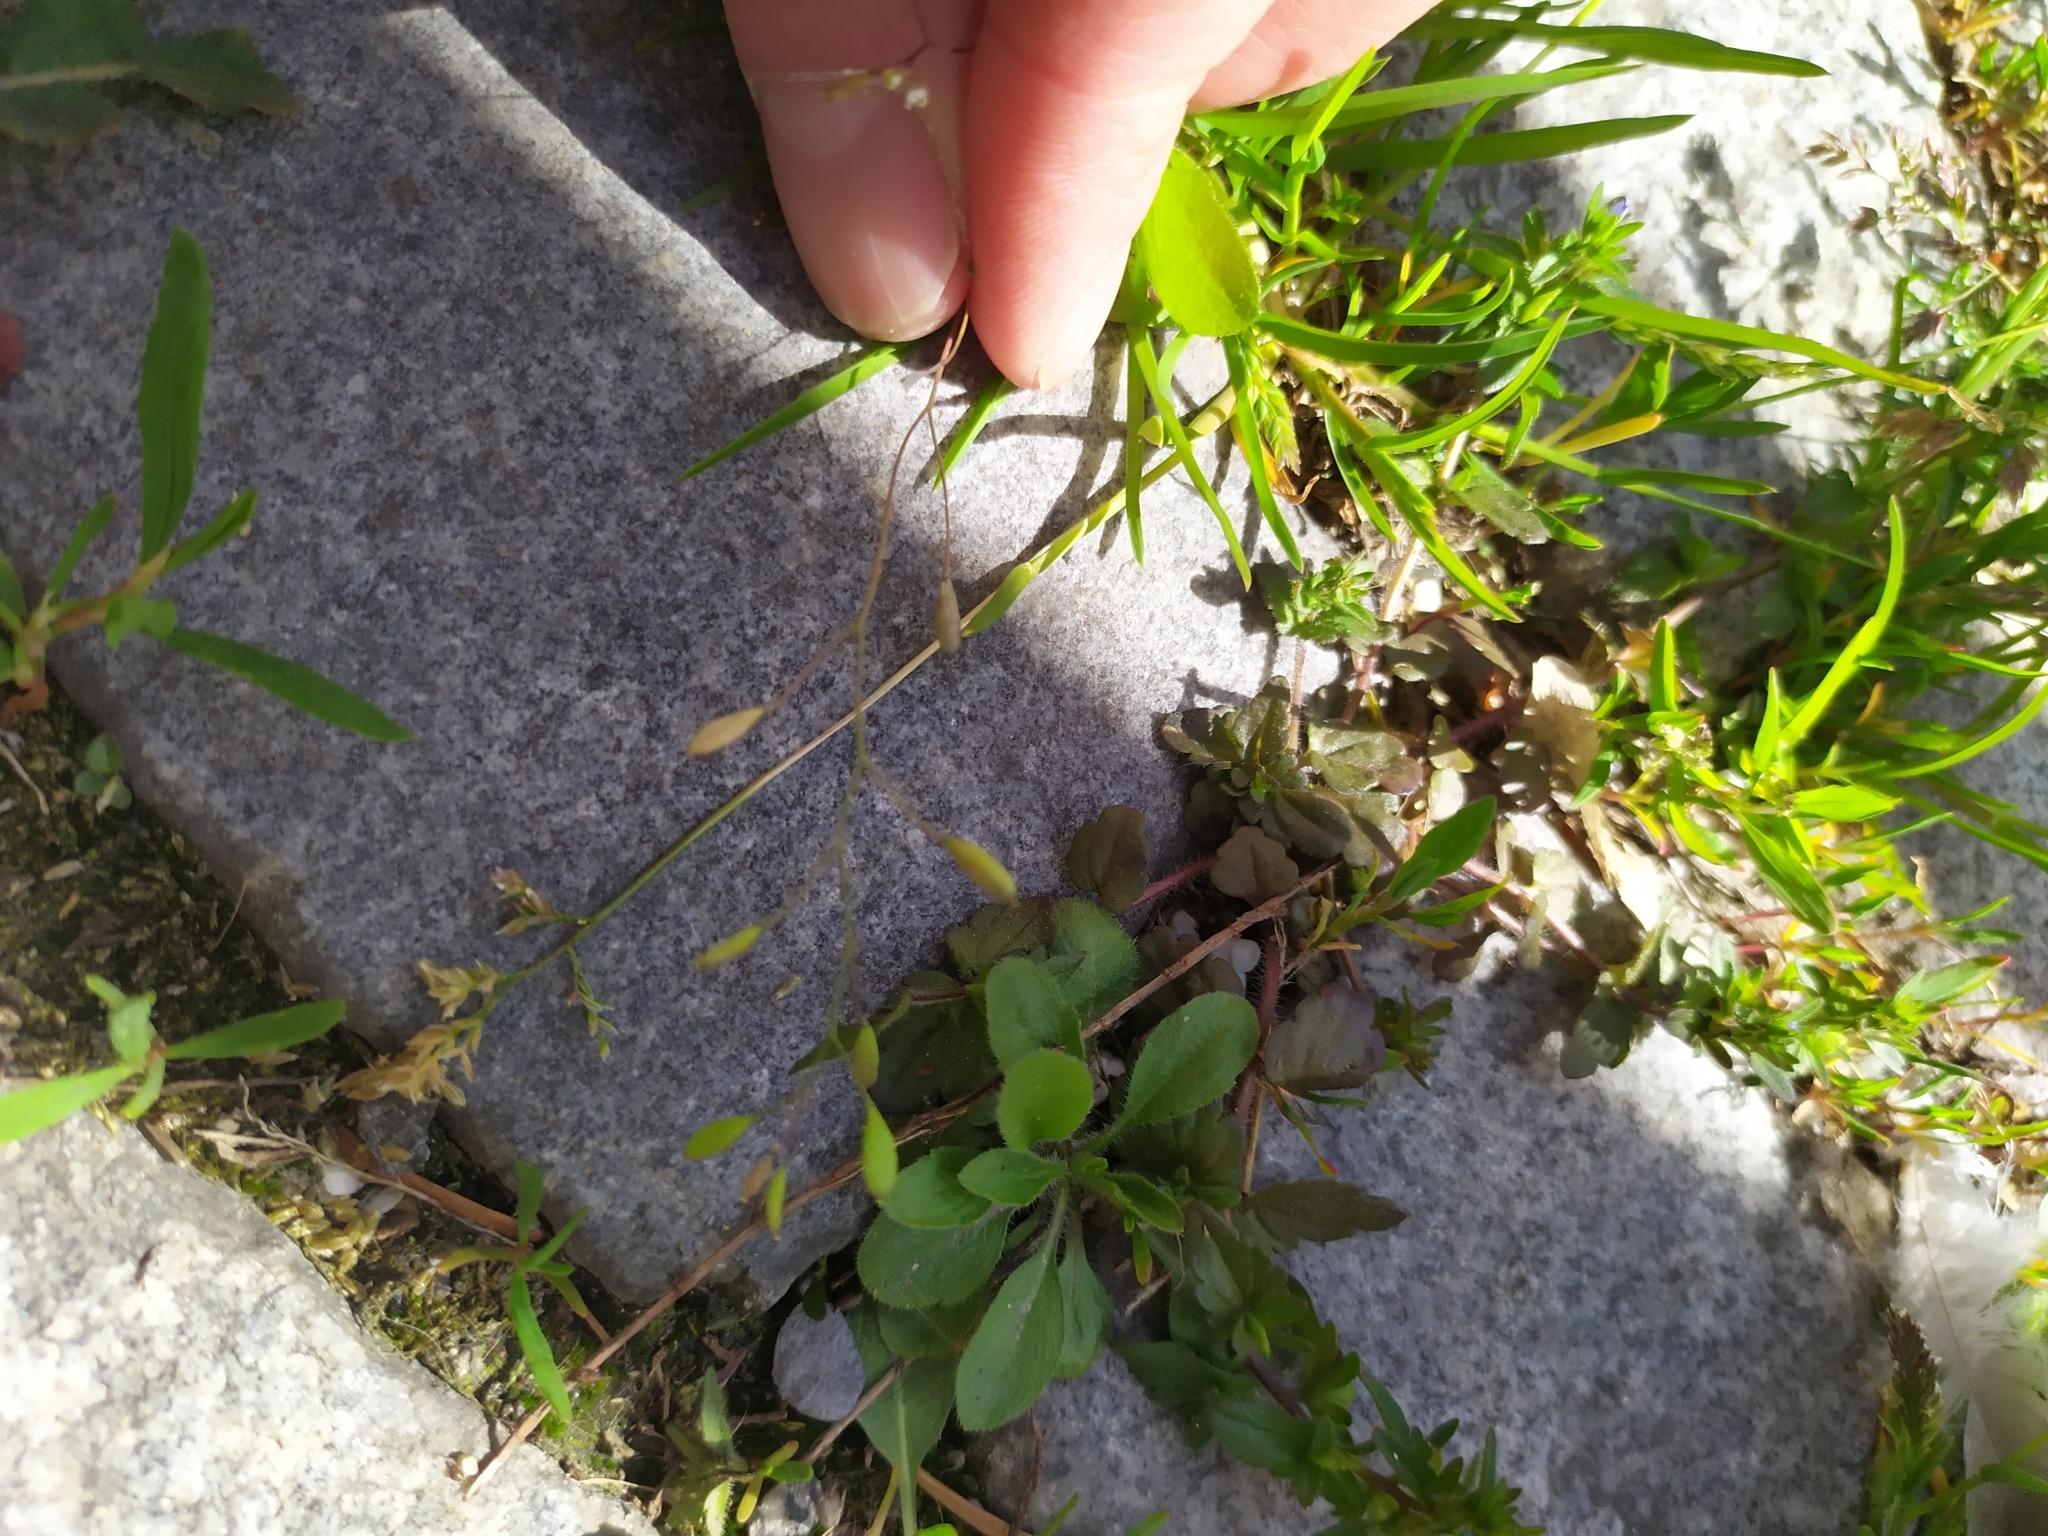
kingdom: Plantae
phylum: Tracheophyta
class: Magnoliopsida
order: Brassicales
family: Brassicaceae
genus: Draba
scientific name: Draba verna
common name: Spring draba
